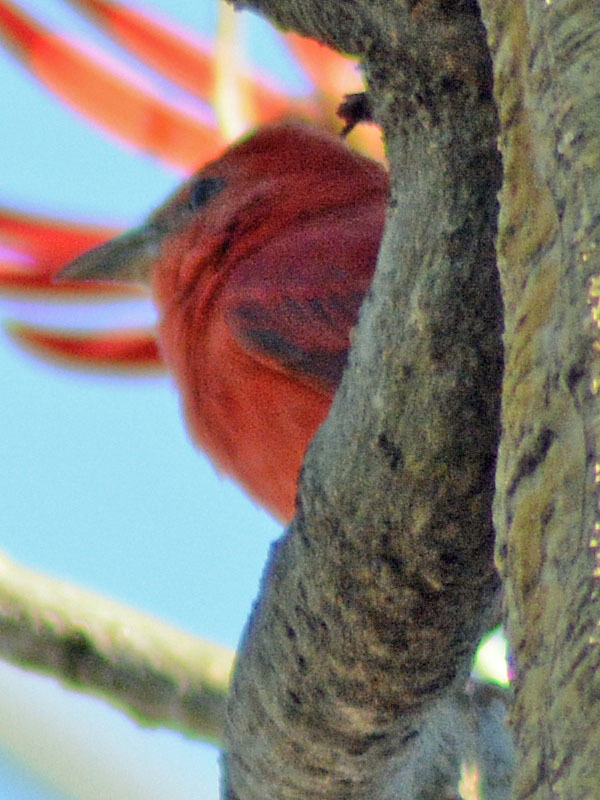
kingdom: Animalia
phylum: Chordata
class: Aves
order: Passeriformes
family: Cardinalidae
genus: Piranga
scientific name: Piranga rubra
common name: Summer tanager
